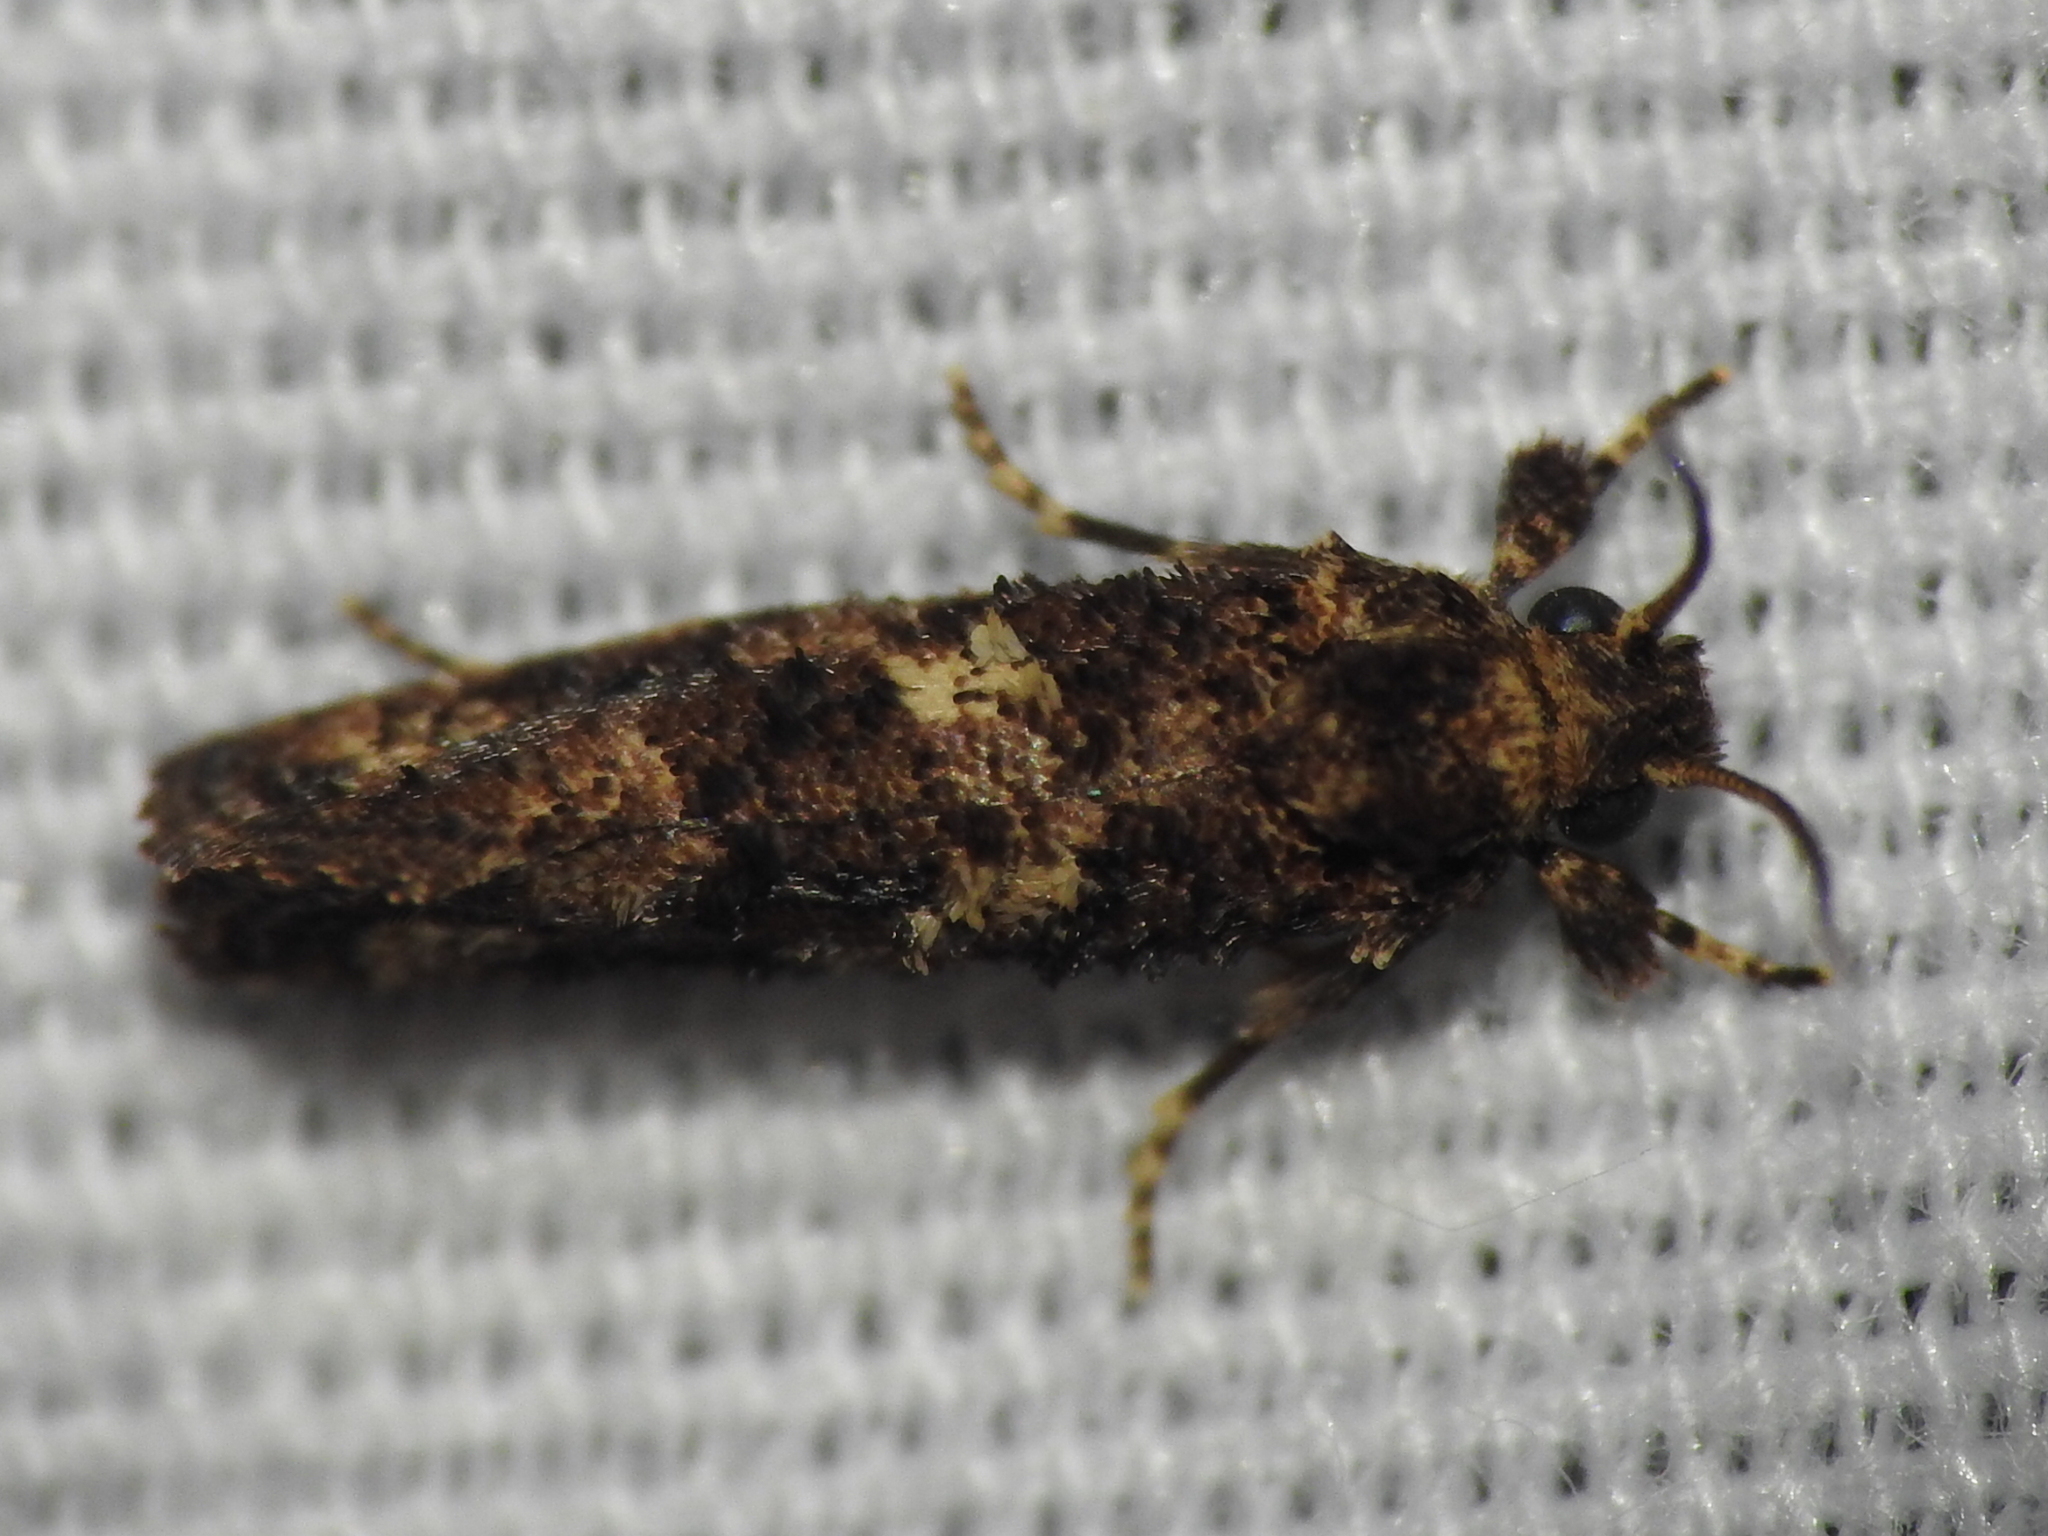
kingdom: Animalia
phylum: Arthropoda
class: Insecta
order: Lepidoptera
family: Tineidae
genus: Acrolophus
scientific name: Acrolophus cressoni
